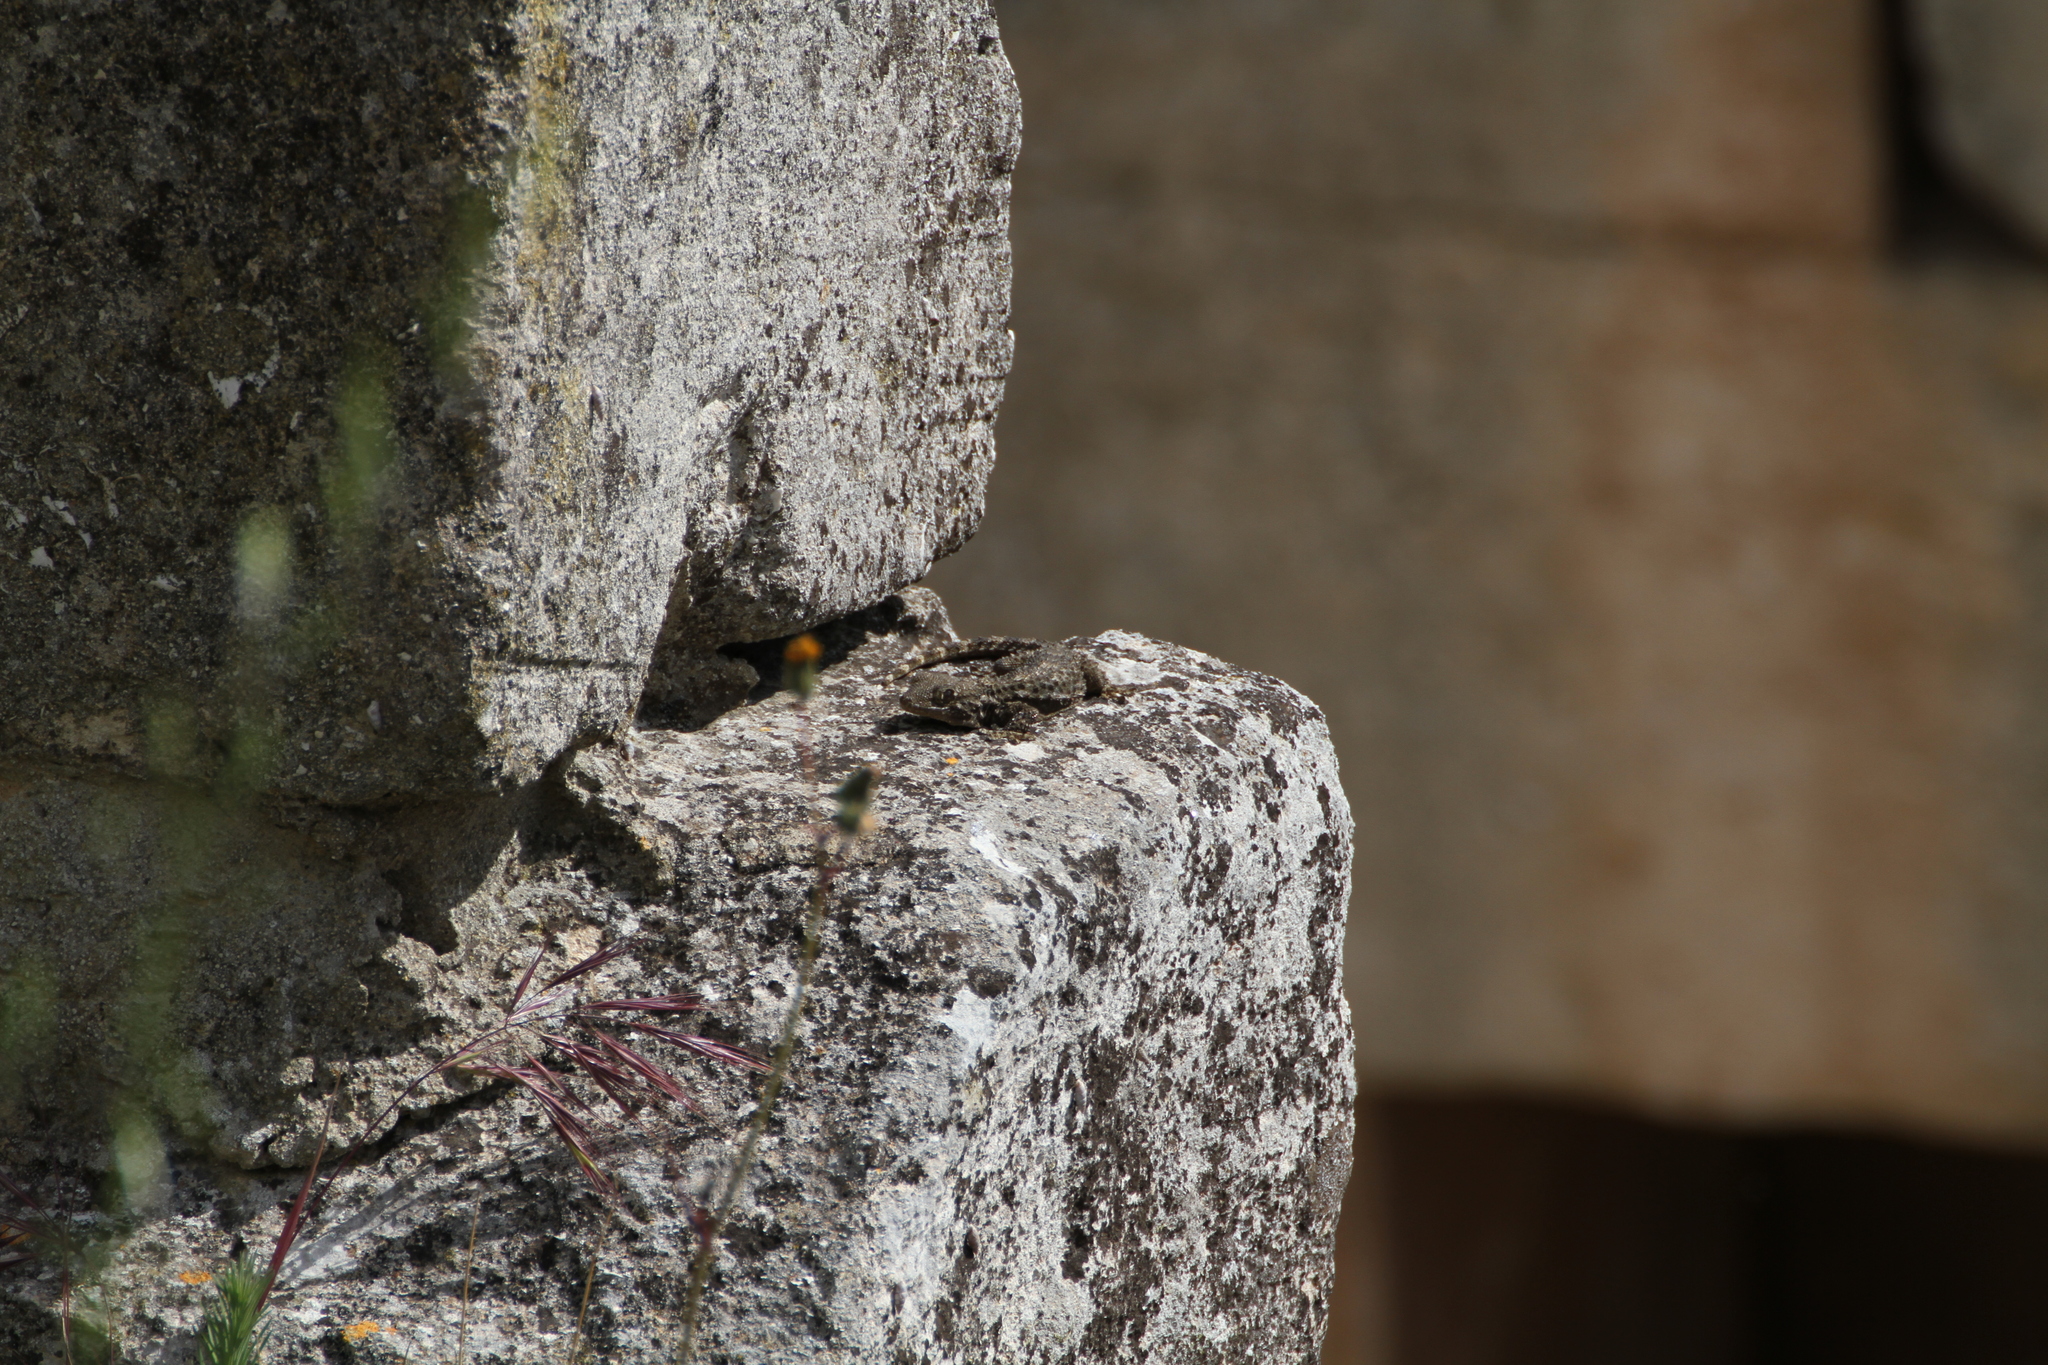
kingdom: Animalia
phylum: Chordata
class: Squamata
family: Phyllodactylidae
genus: Tarentola
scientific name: Tarentola mauritanica
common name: Moorish gecko
